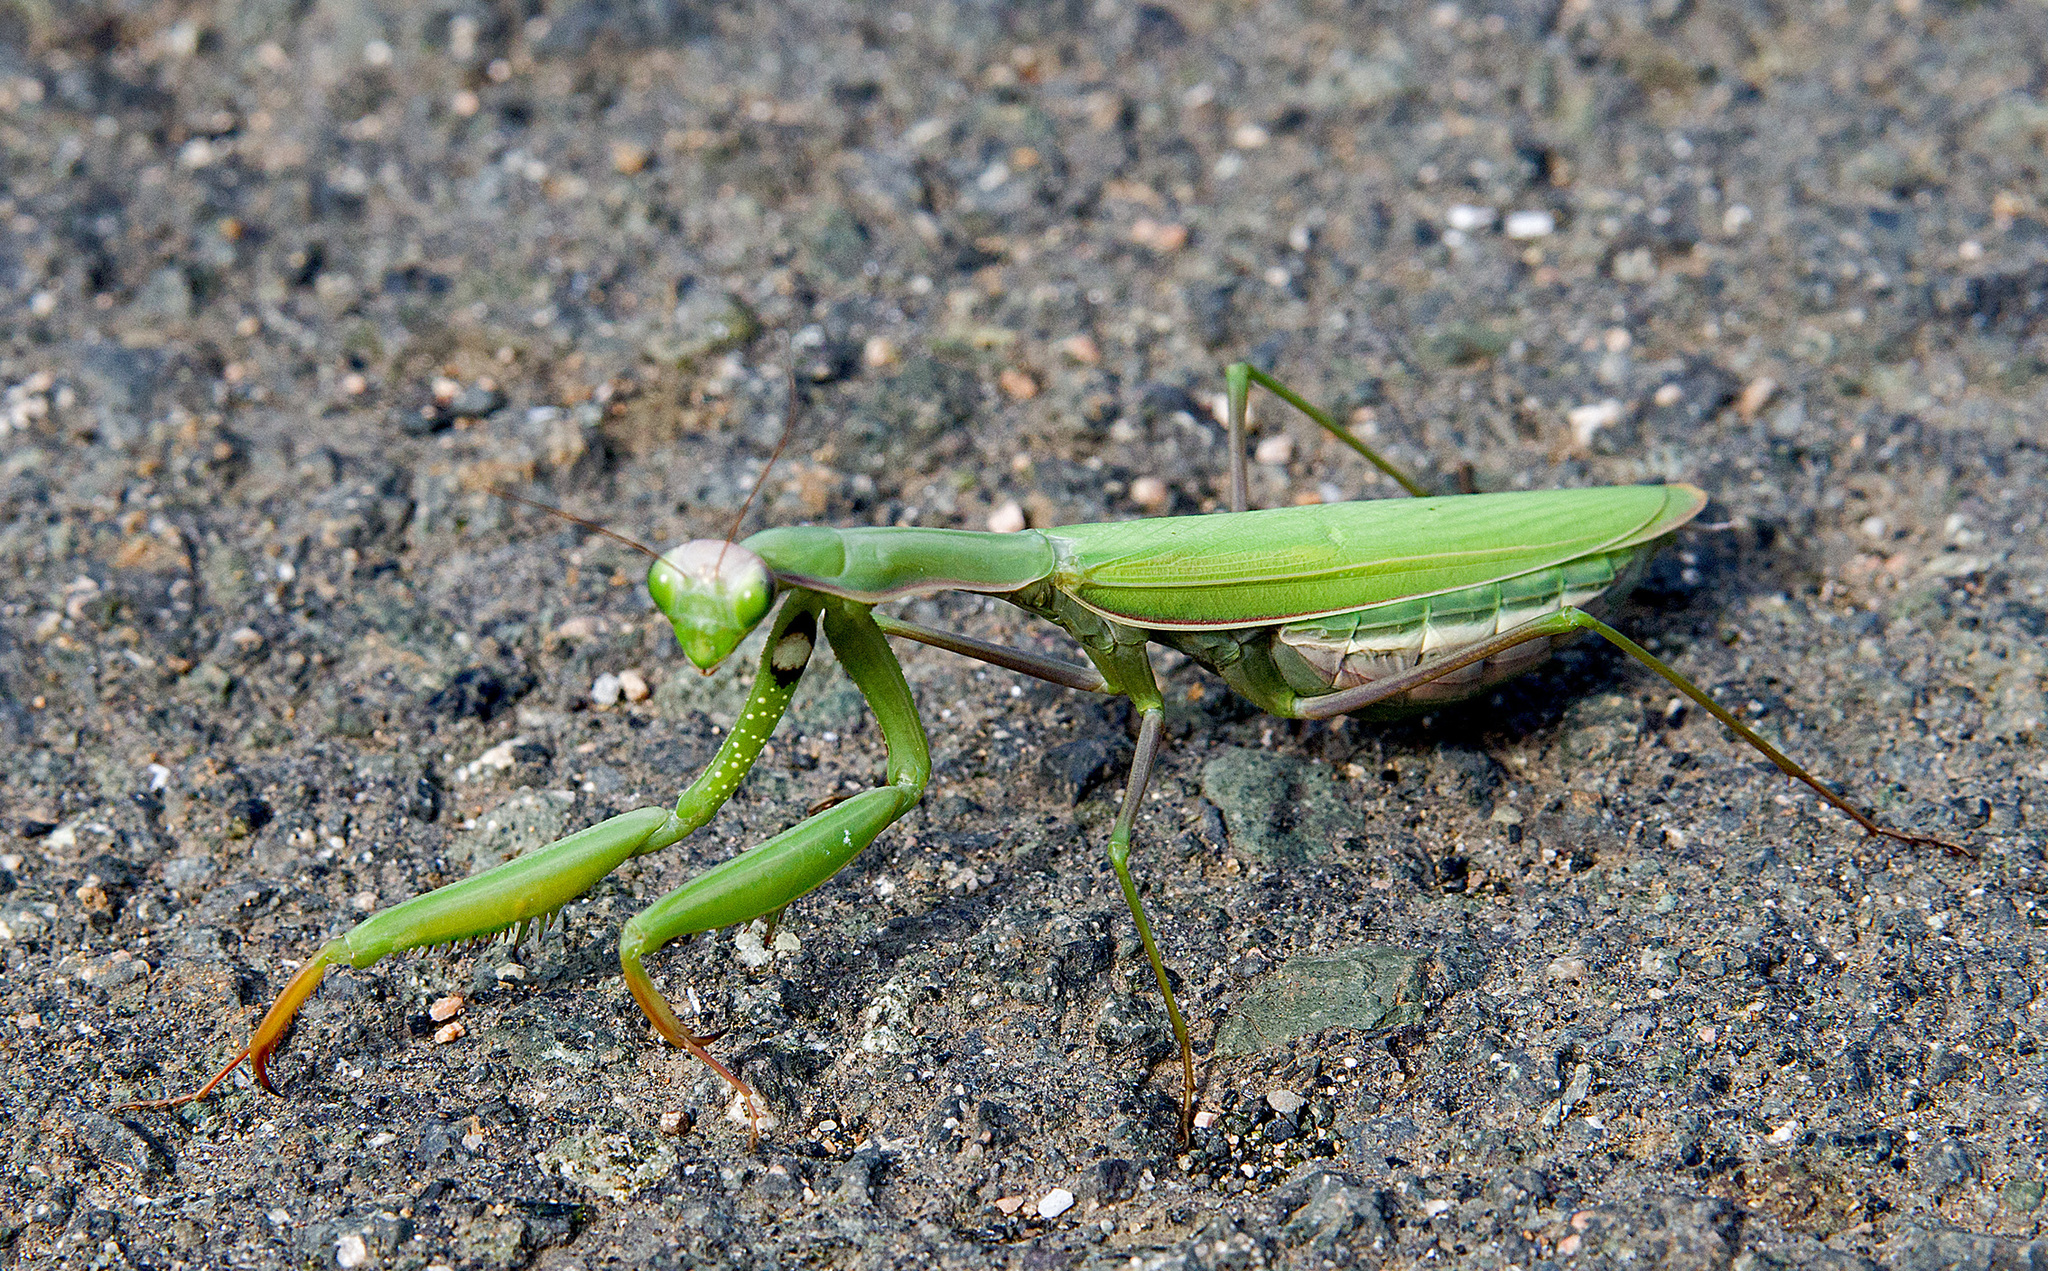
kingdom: Animalia
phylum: Arthropoda
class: Insecta
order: Mantodea
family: Mantidae
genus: Mantis
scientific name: Mantis religiosa
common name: Praying mantis
